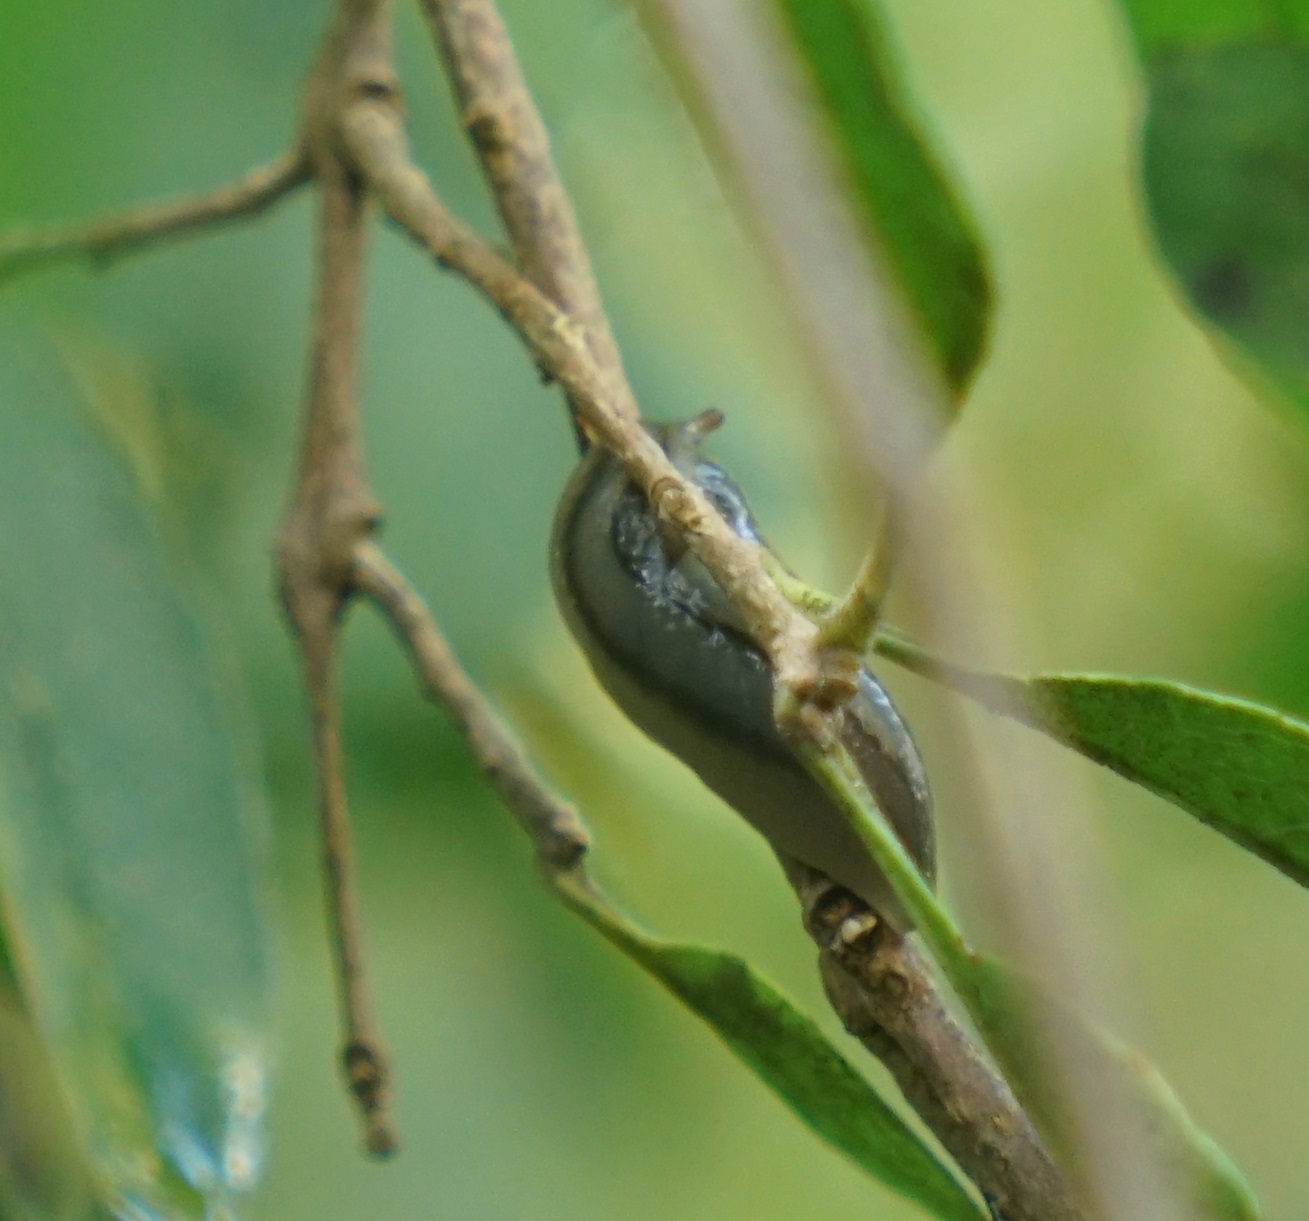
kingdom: Animalia
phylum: Mollusca
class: Gastropoda
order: Stylommatophora
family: Athoracophoridae
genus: Triboniophorus
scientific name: Triboniophorus graeffei
